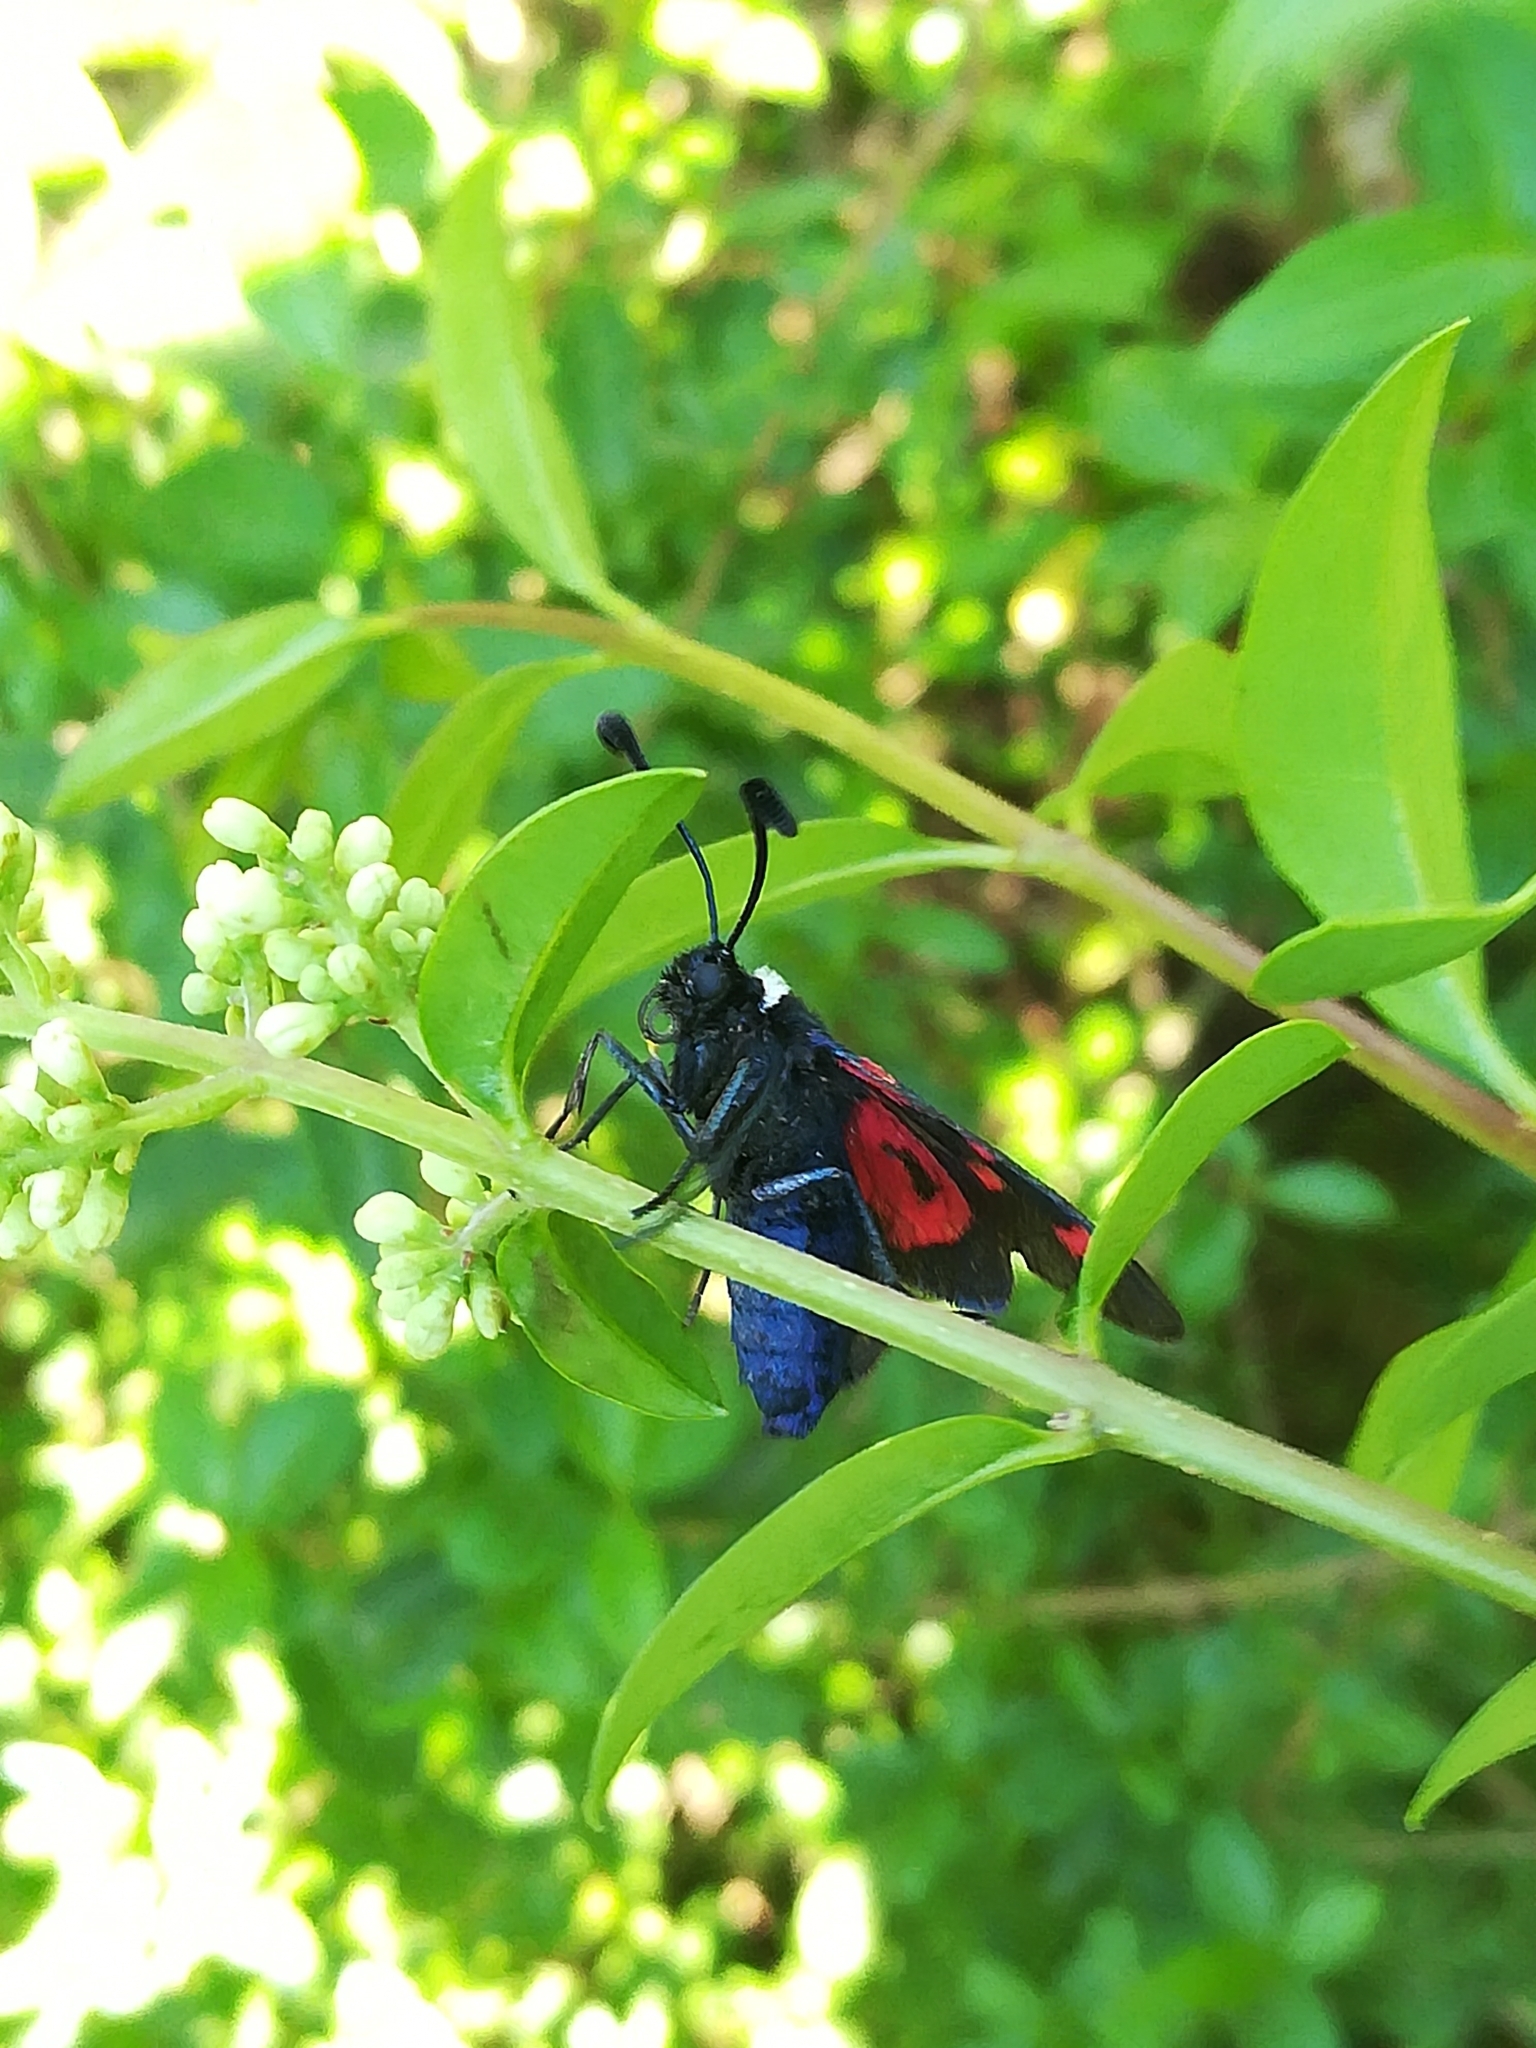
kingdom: Animalia
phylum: Arthropoda
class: Insecta
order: Lepidoptera
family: Zygaenidae
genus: Zygaena
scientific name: Zygaena lavandulae
